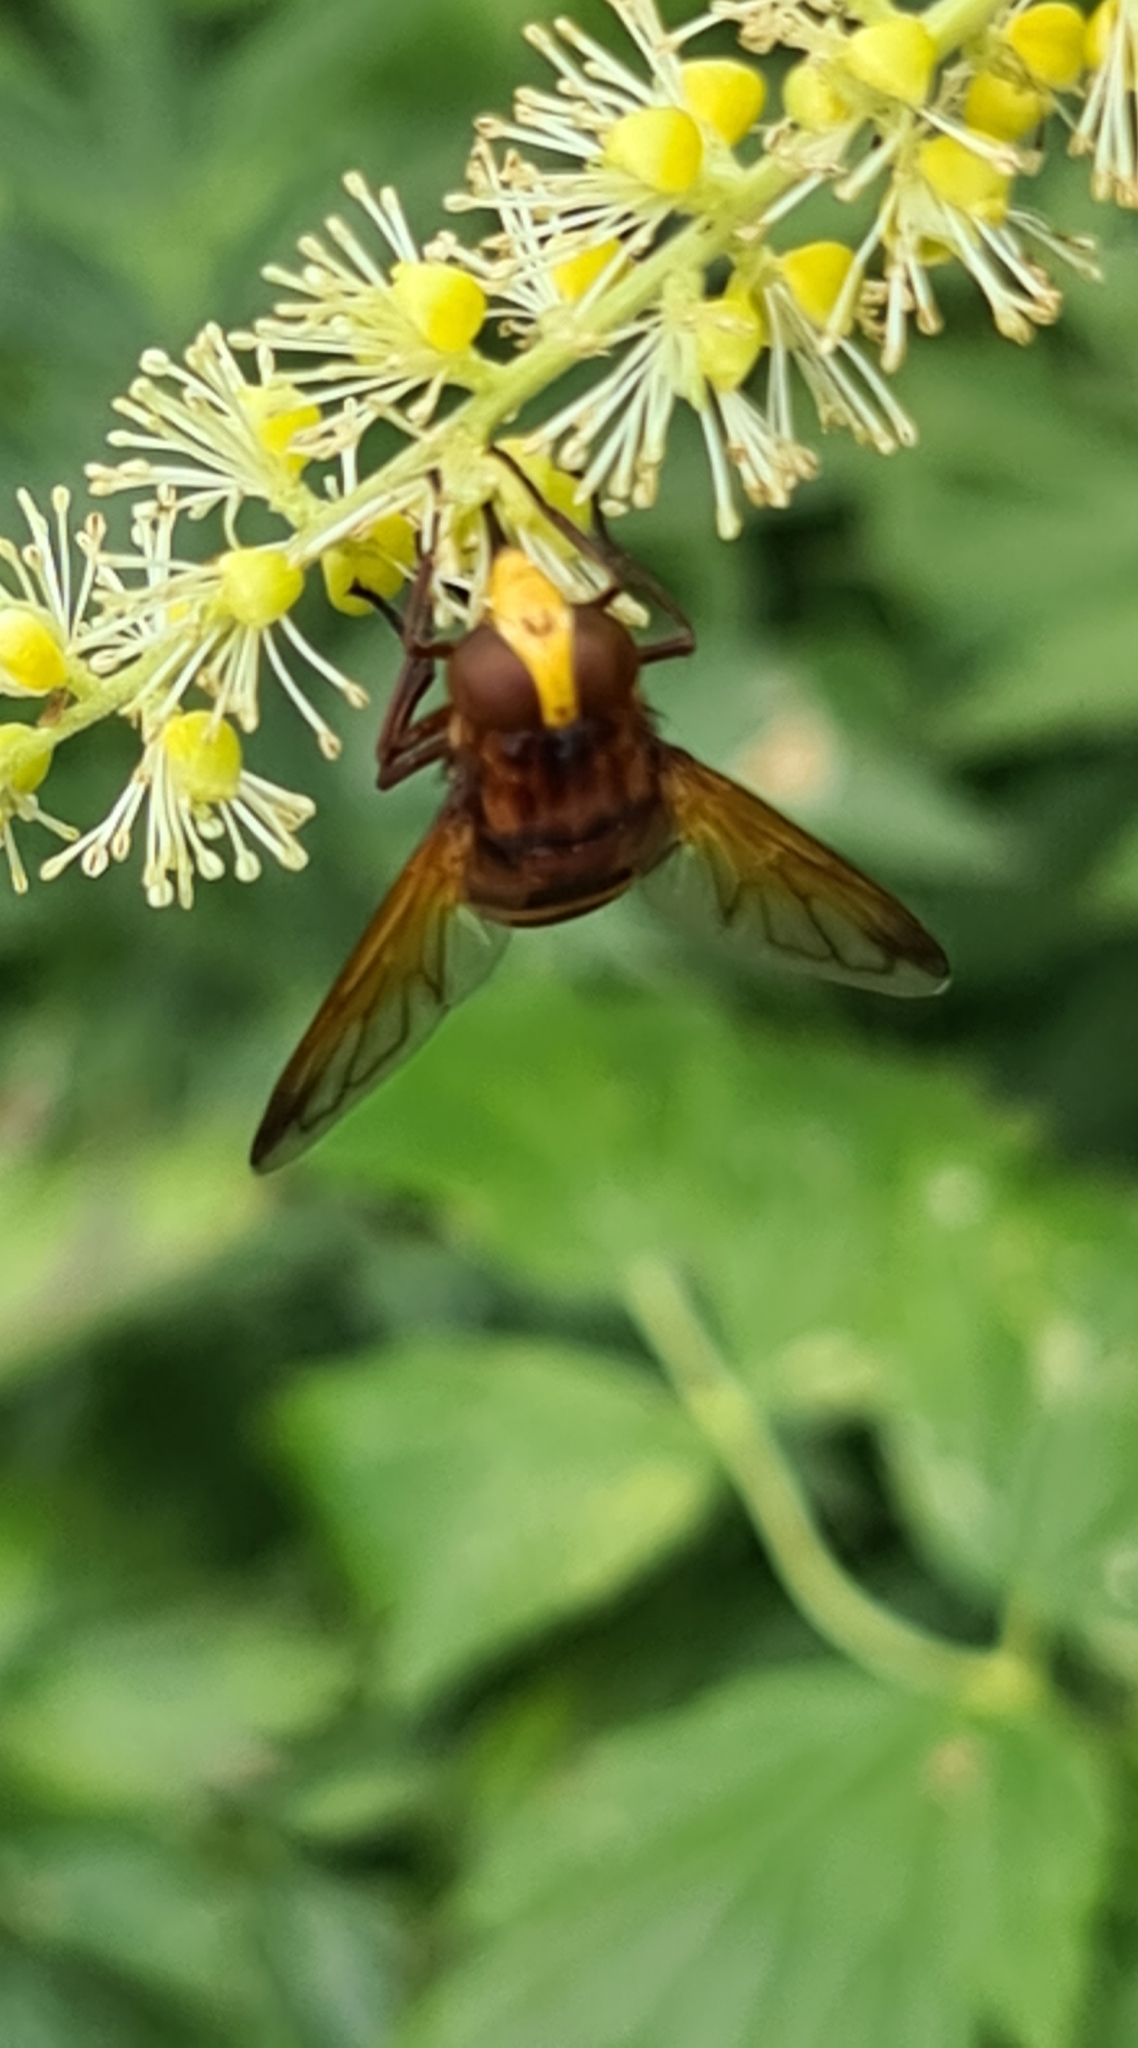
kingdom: Animalia
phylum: Arthropoda
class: Insecta
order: Diptera
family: Syrphidae
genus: Volucella
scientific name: Volucella zonaria
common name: Hornet hoverfly
